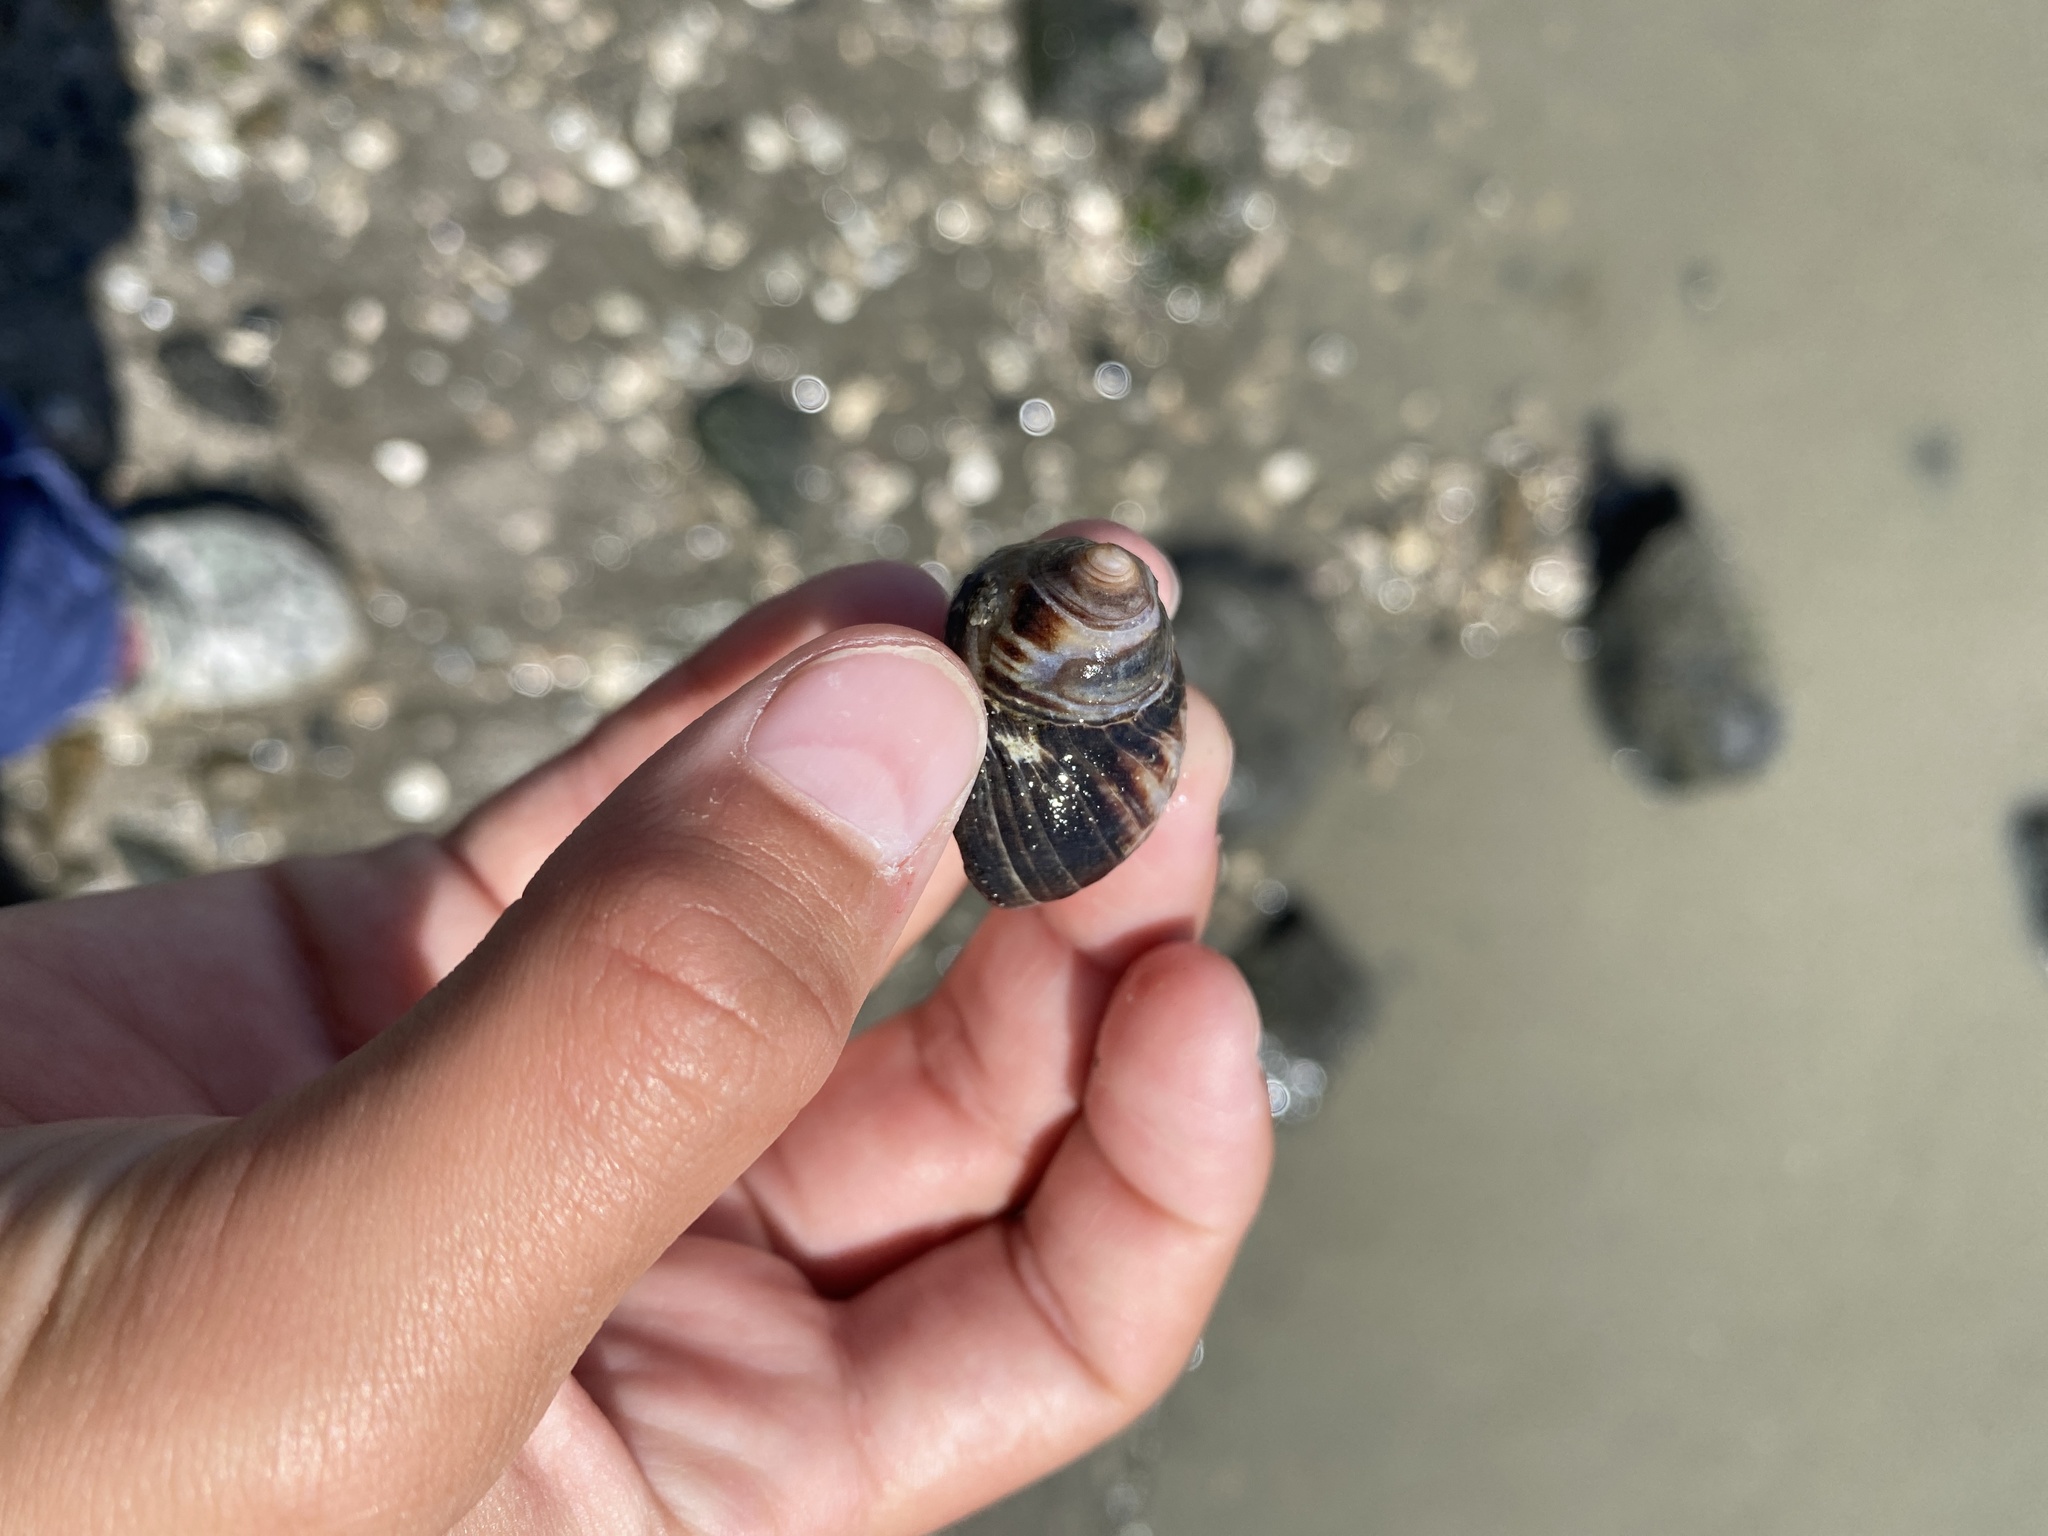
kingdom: Animalia
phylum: Mollusca
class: Gastropoda
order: Littorinimorpha
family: Littorinidae
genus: Littorina
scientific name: Littorina littorea
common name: Common periwinkle
